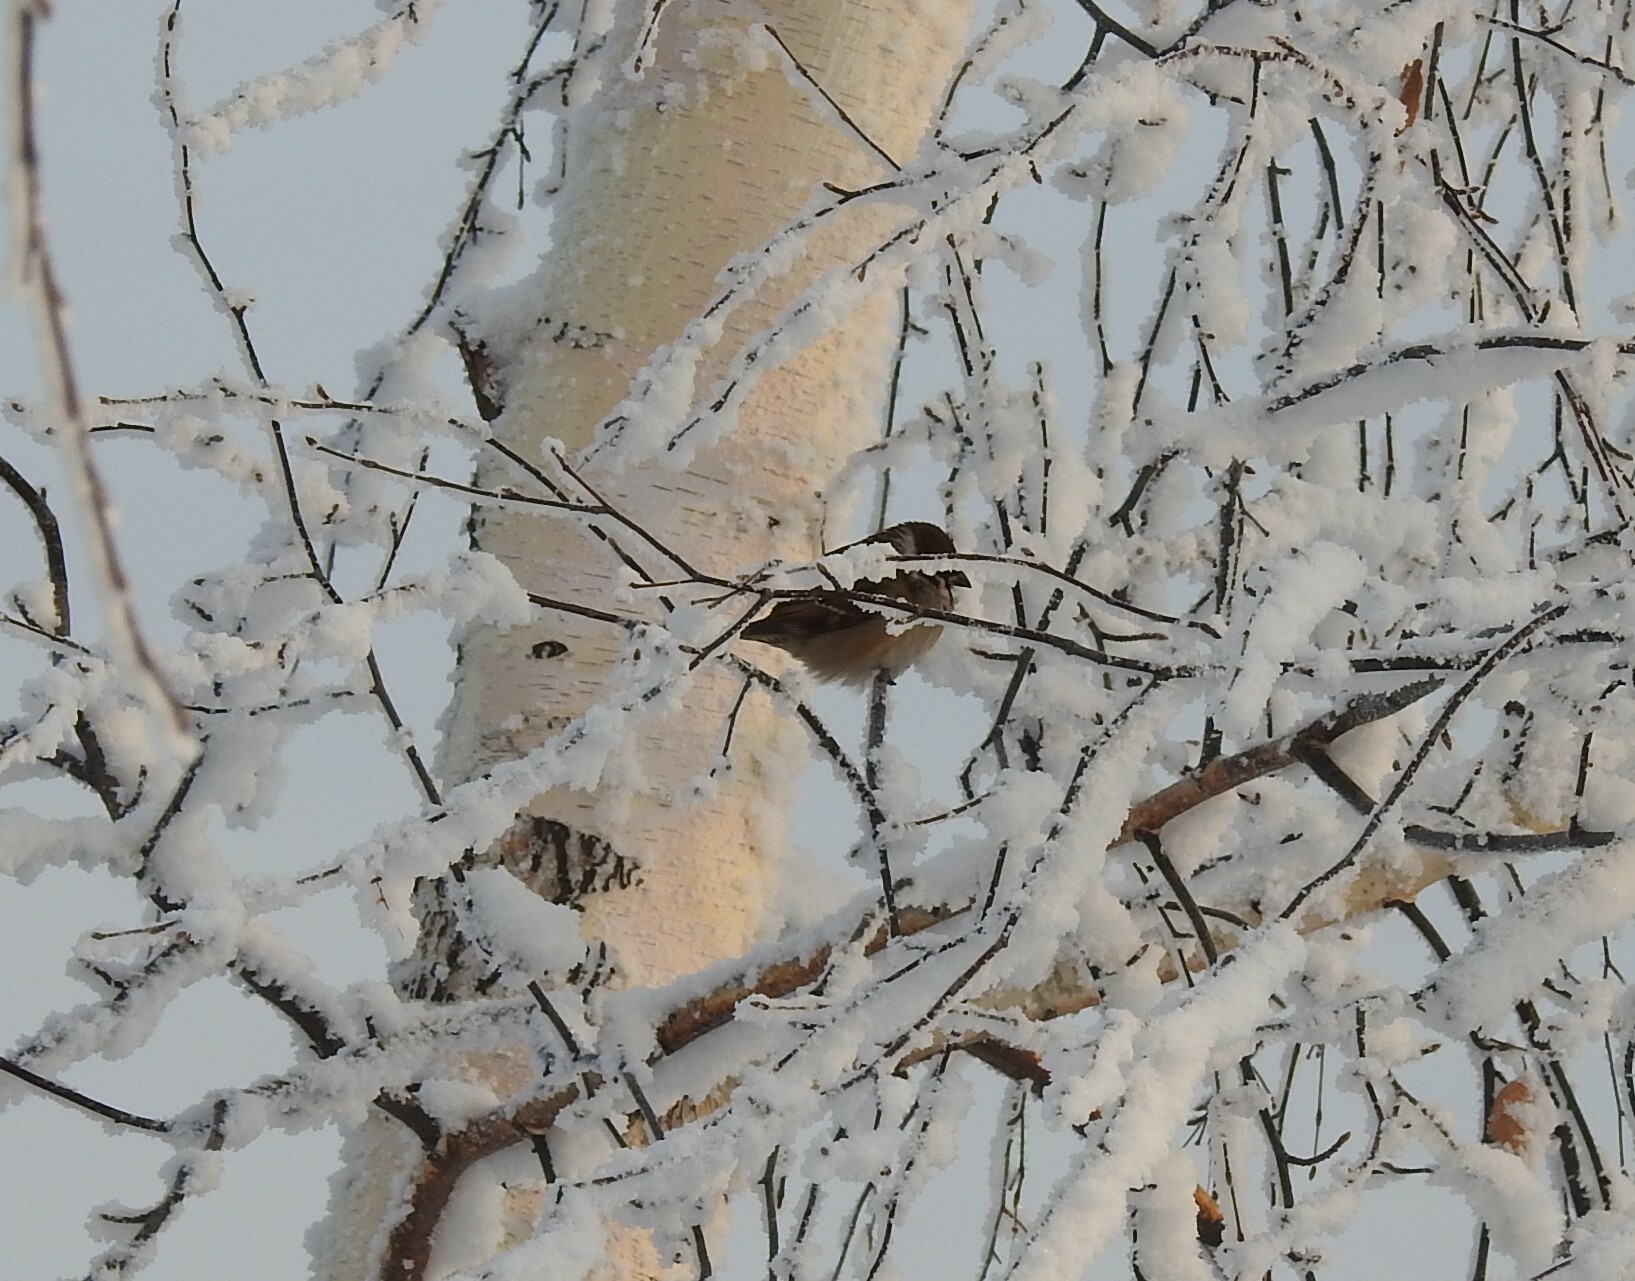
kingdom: Animalia
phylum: Chordata
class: Aves
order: Passeriformes
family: Passeridae
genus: Passer
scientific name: Passer montanus
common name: Eurasian tree sparrow
